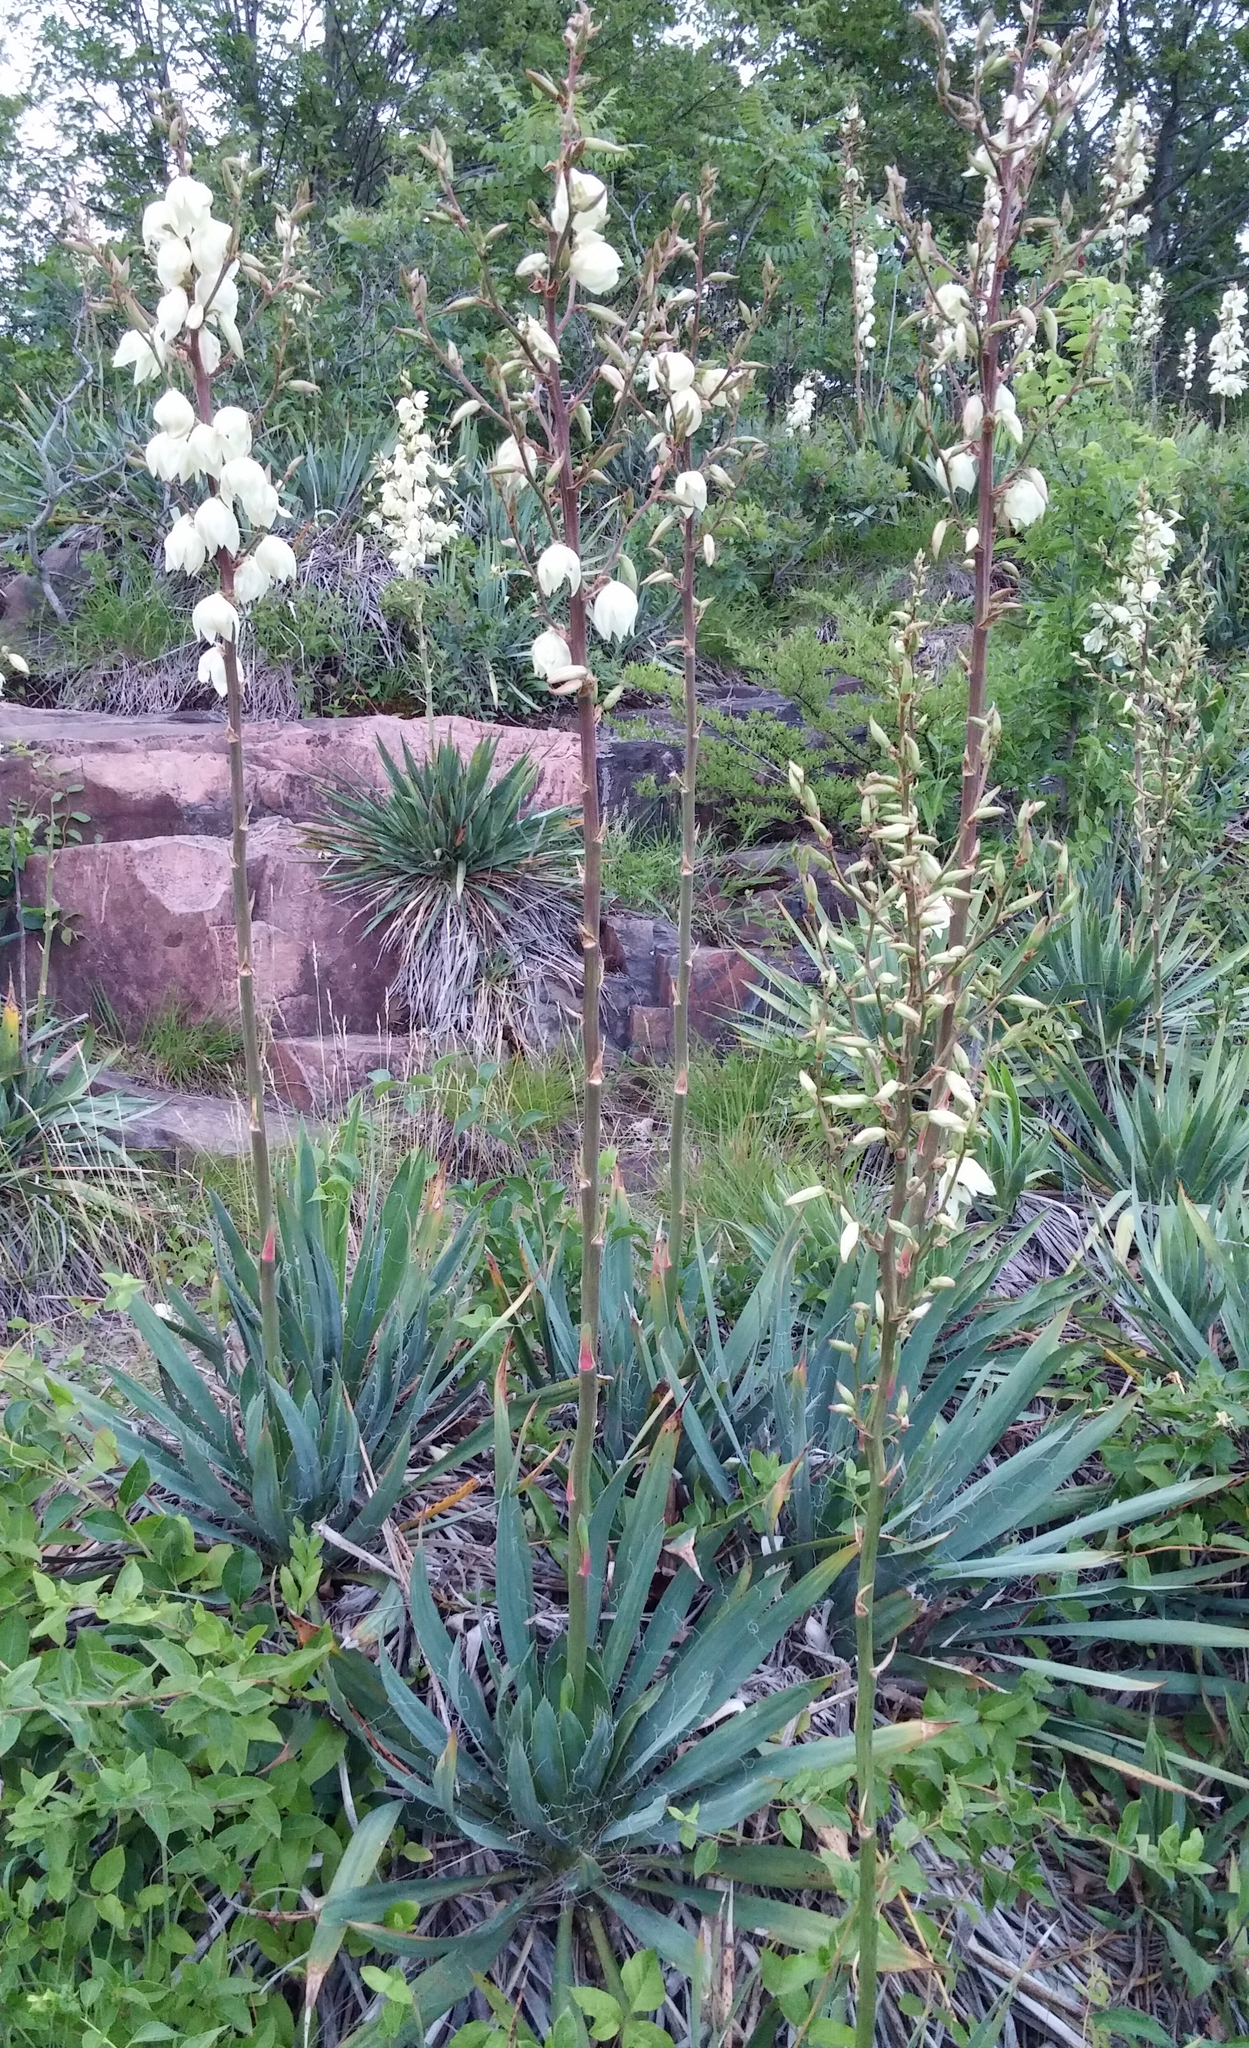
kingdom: Plantae
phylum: Tracheophyta
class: Liliopsida
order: Asparagales
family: Asparagaceae
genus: Yucca
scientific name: Yucca filamentosa
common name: Adam's-needle
